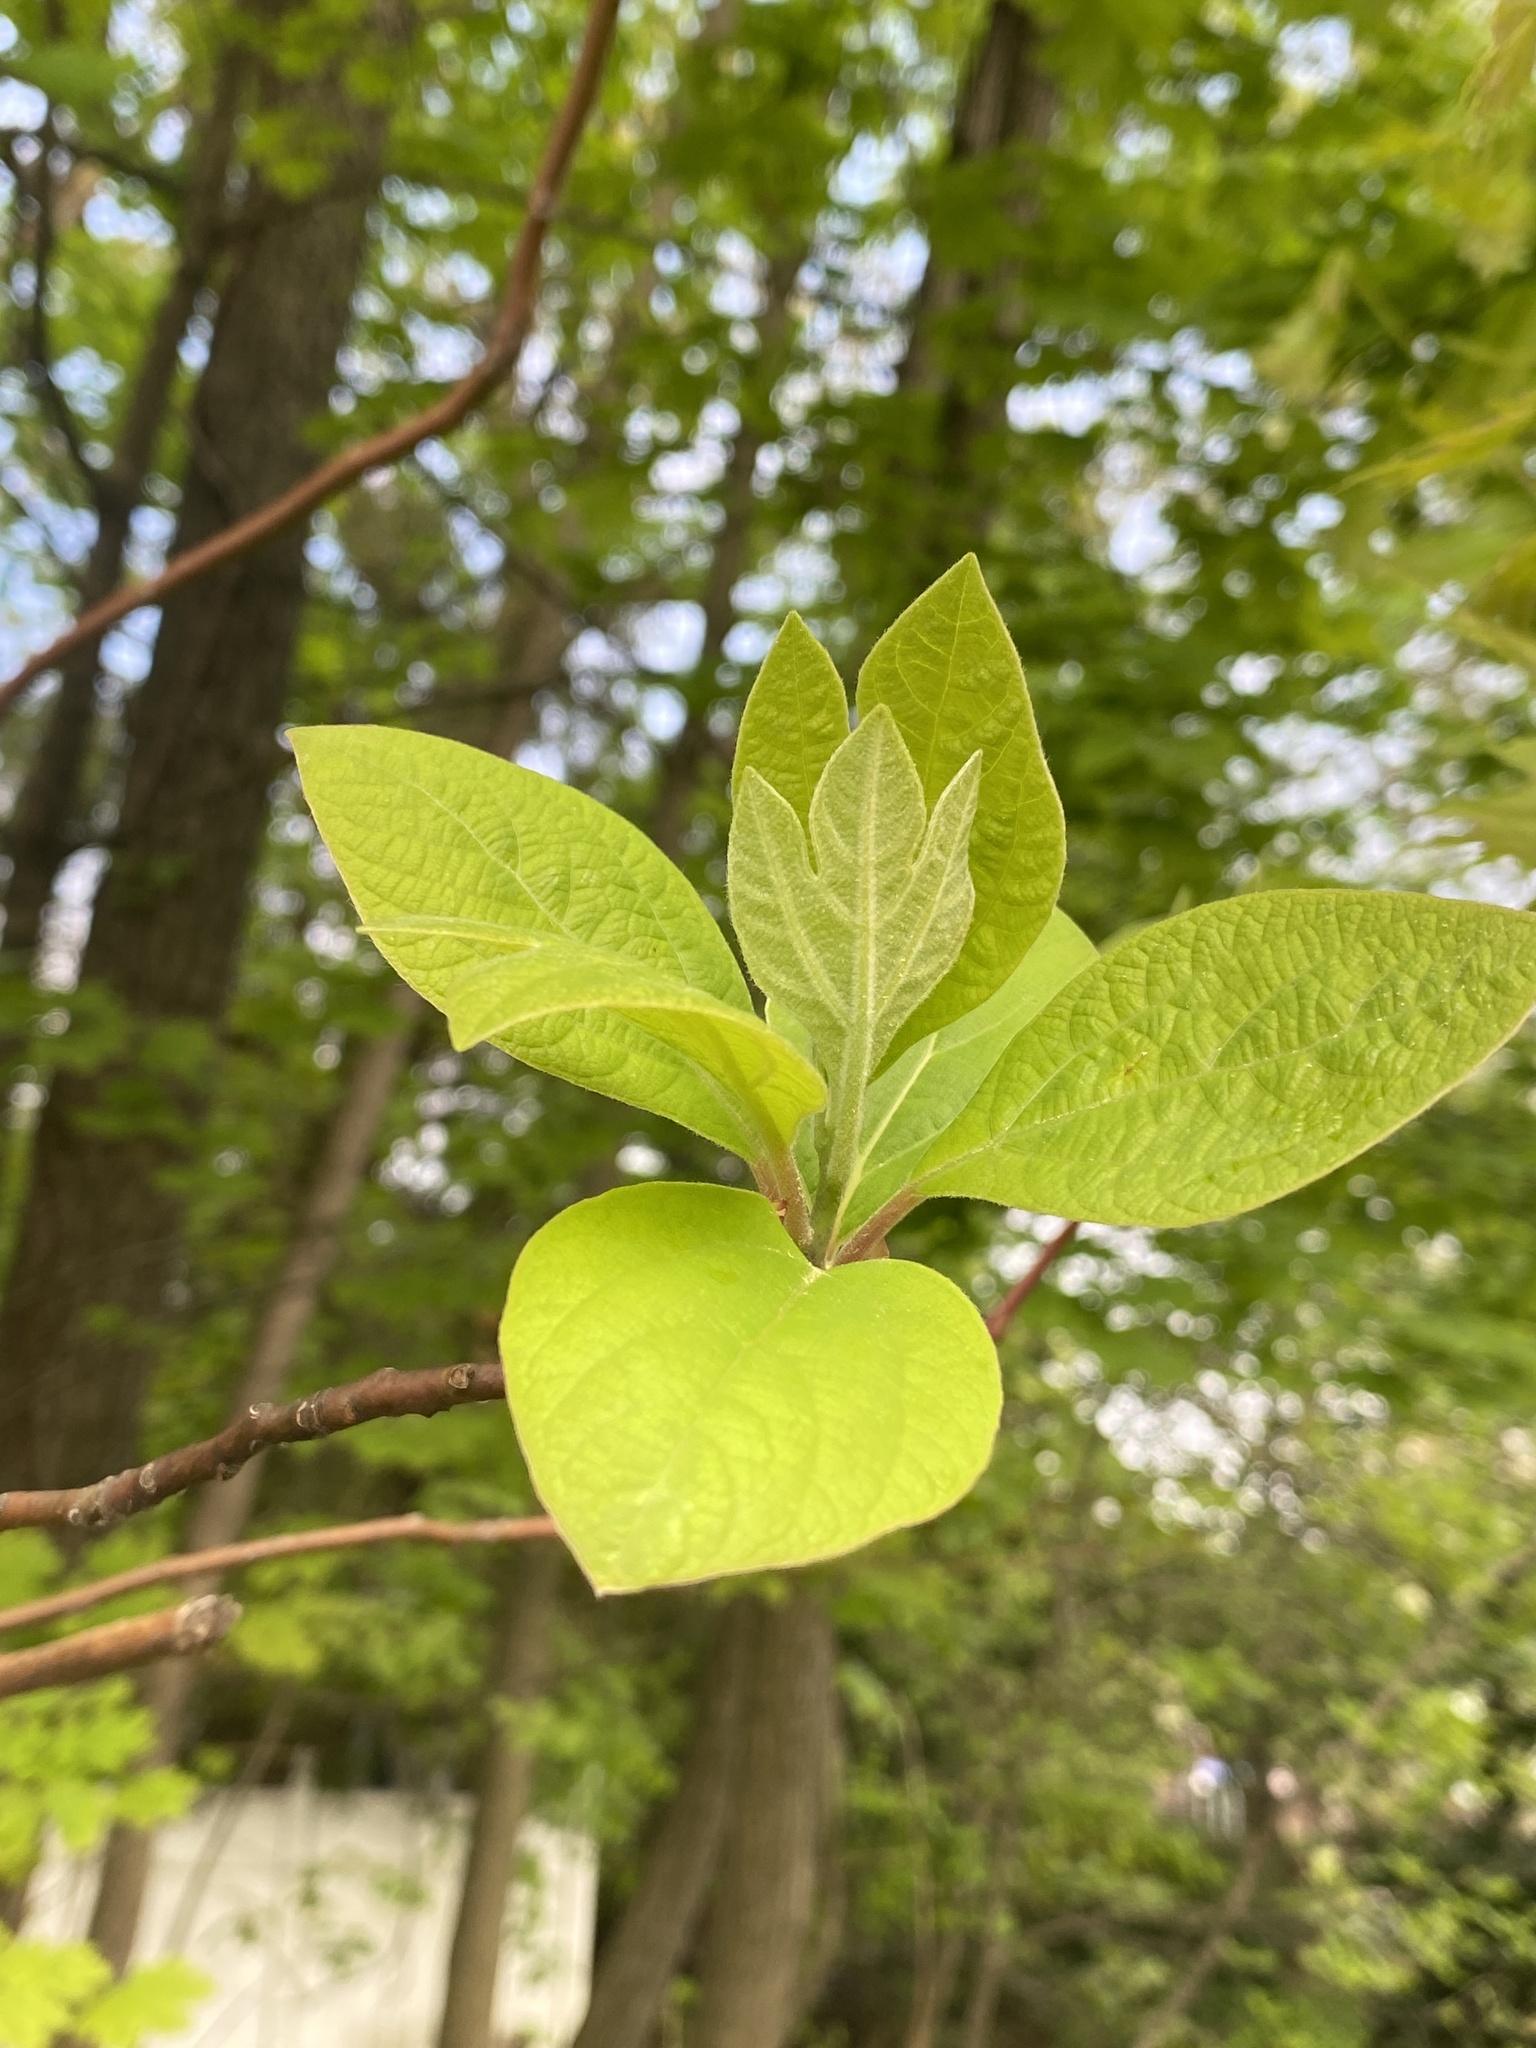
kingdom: Plantae
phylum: Tracheophyta
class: Magnoliopsida
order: Laurales
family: Lauraceae
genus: Sassafras
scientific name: Sassafras albidum
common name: Sassafras
